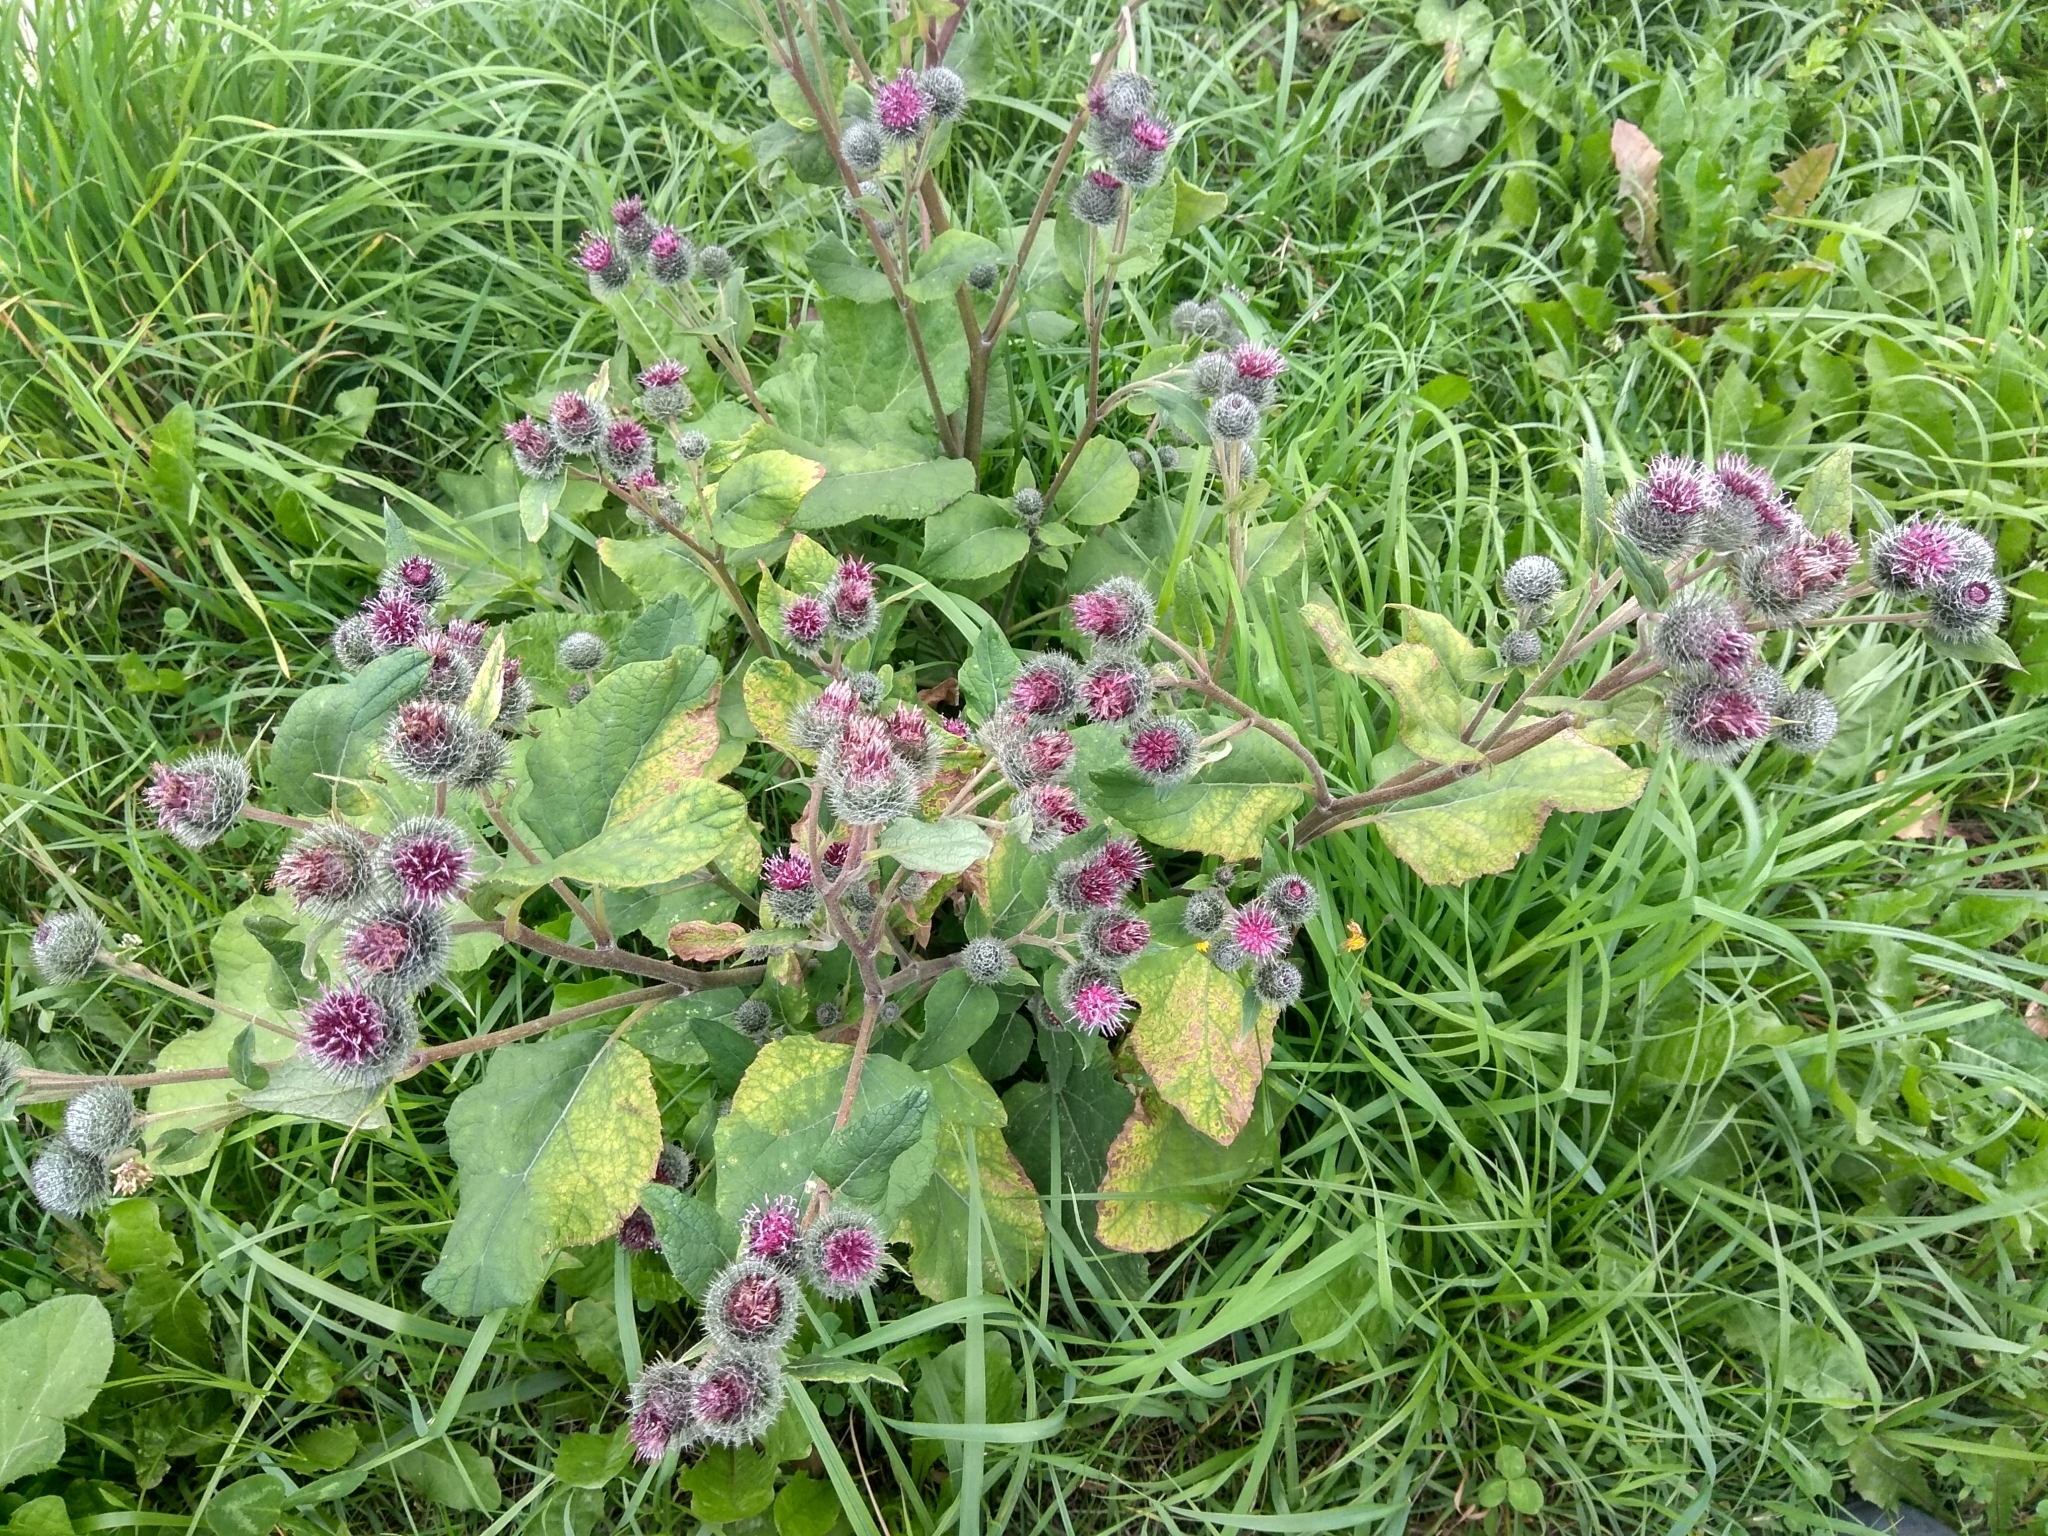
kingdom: Plantae
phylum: Tracheophyta
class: Magnoliopsida
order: Asterales
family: Asteraceae
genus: Arctium
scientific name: Arctium tomentosum
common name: Woolly burdock
